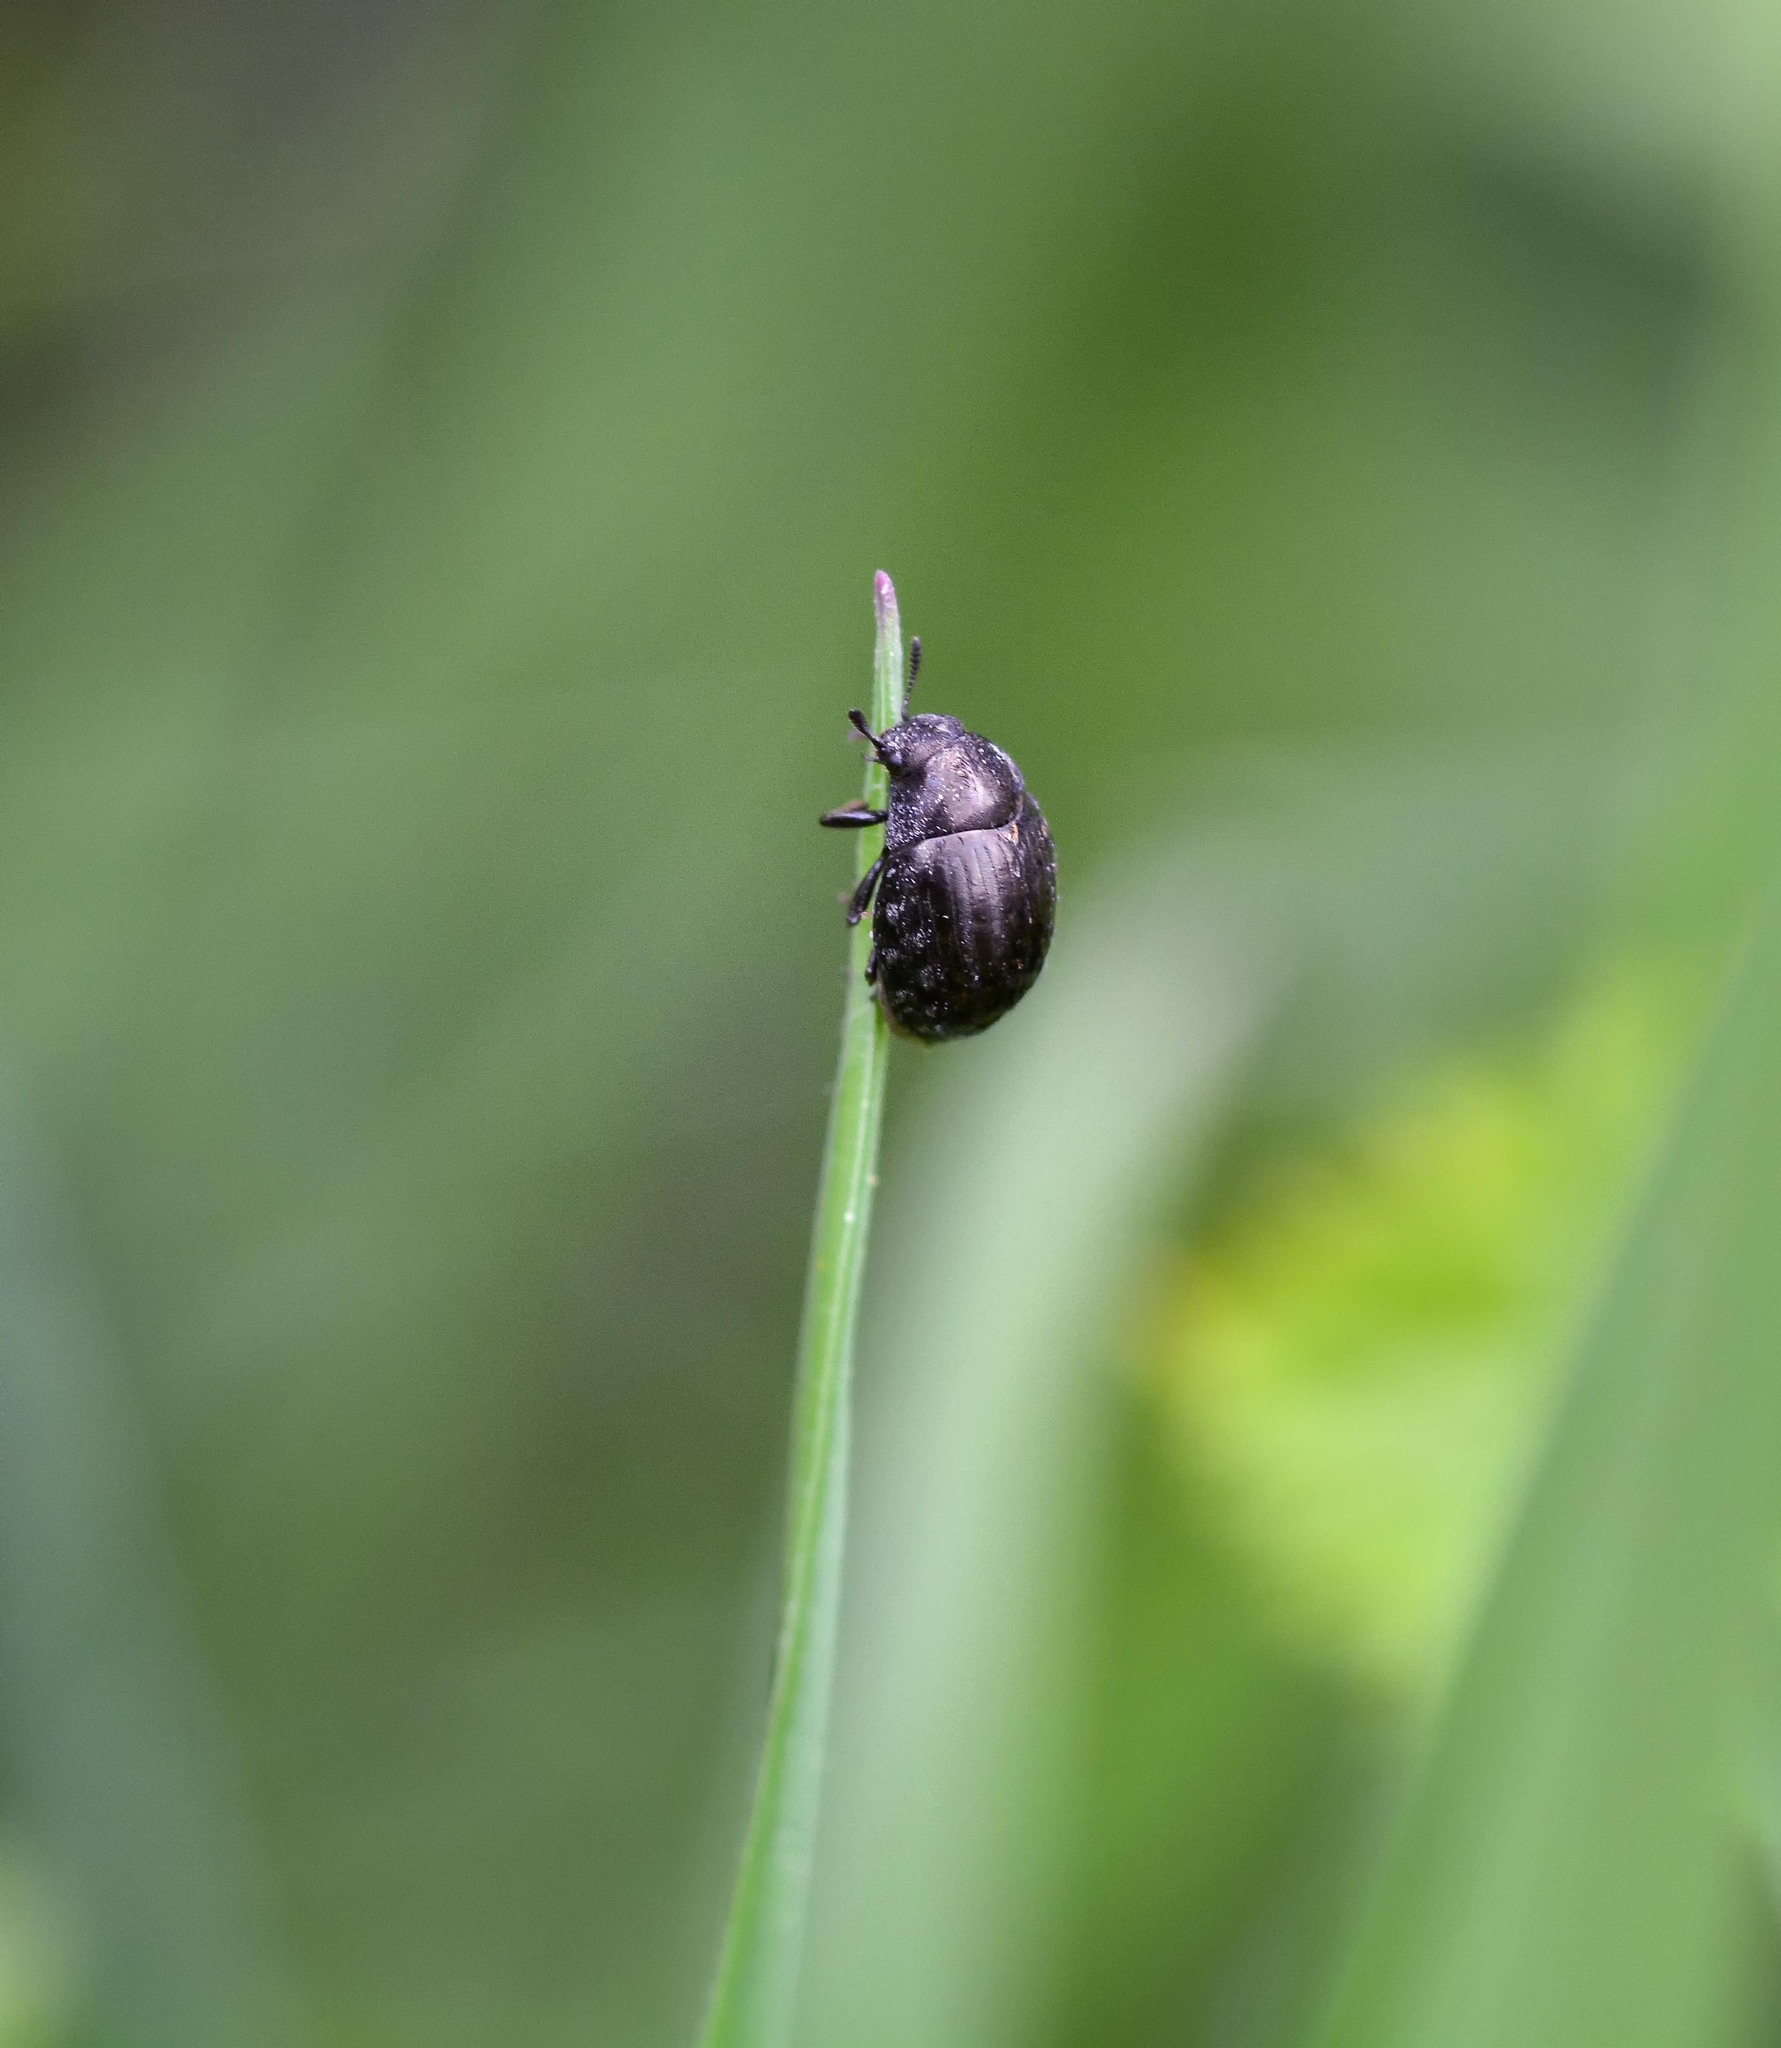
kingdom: Animalia
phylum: Arthropoda
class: Insecta
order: Coleoptera
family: Byrrhidae
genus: Cytilus
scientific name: Cytilus sericeus
